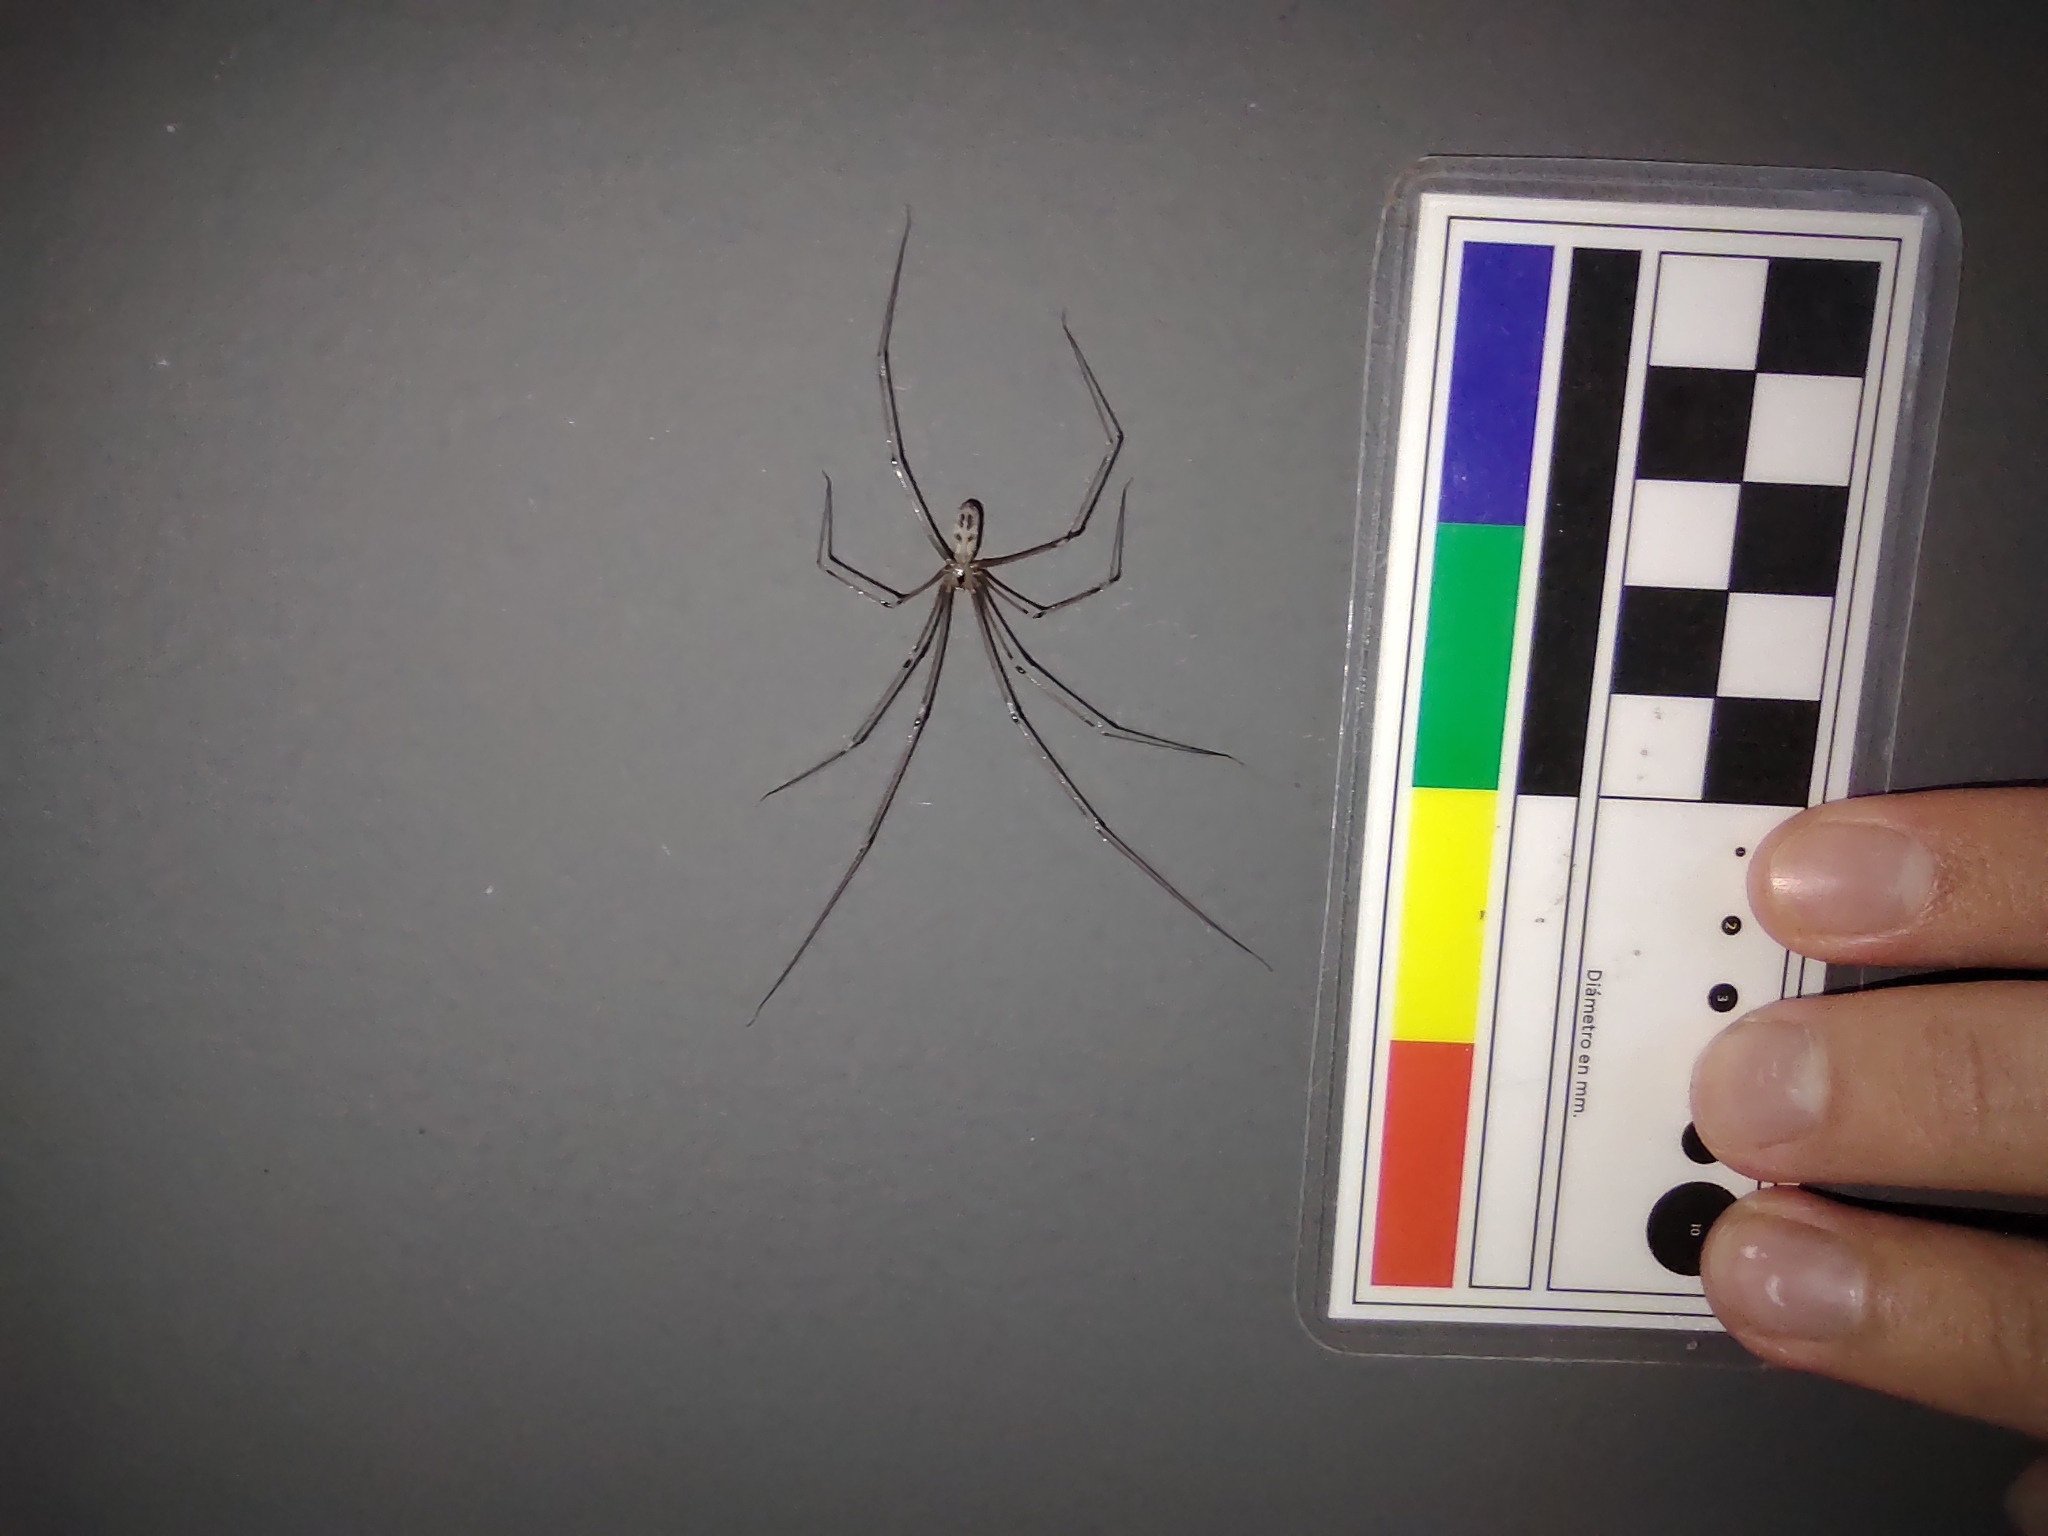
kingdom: Animalia
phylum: Arthropoda
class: Arachnida
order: Araneae
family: Pholcidae
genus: Pholcus
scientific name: Pholcus phalangioides
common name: Longbodied cellar spider
